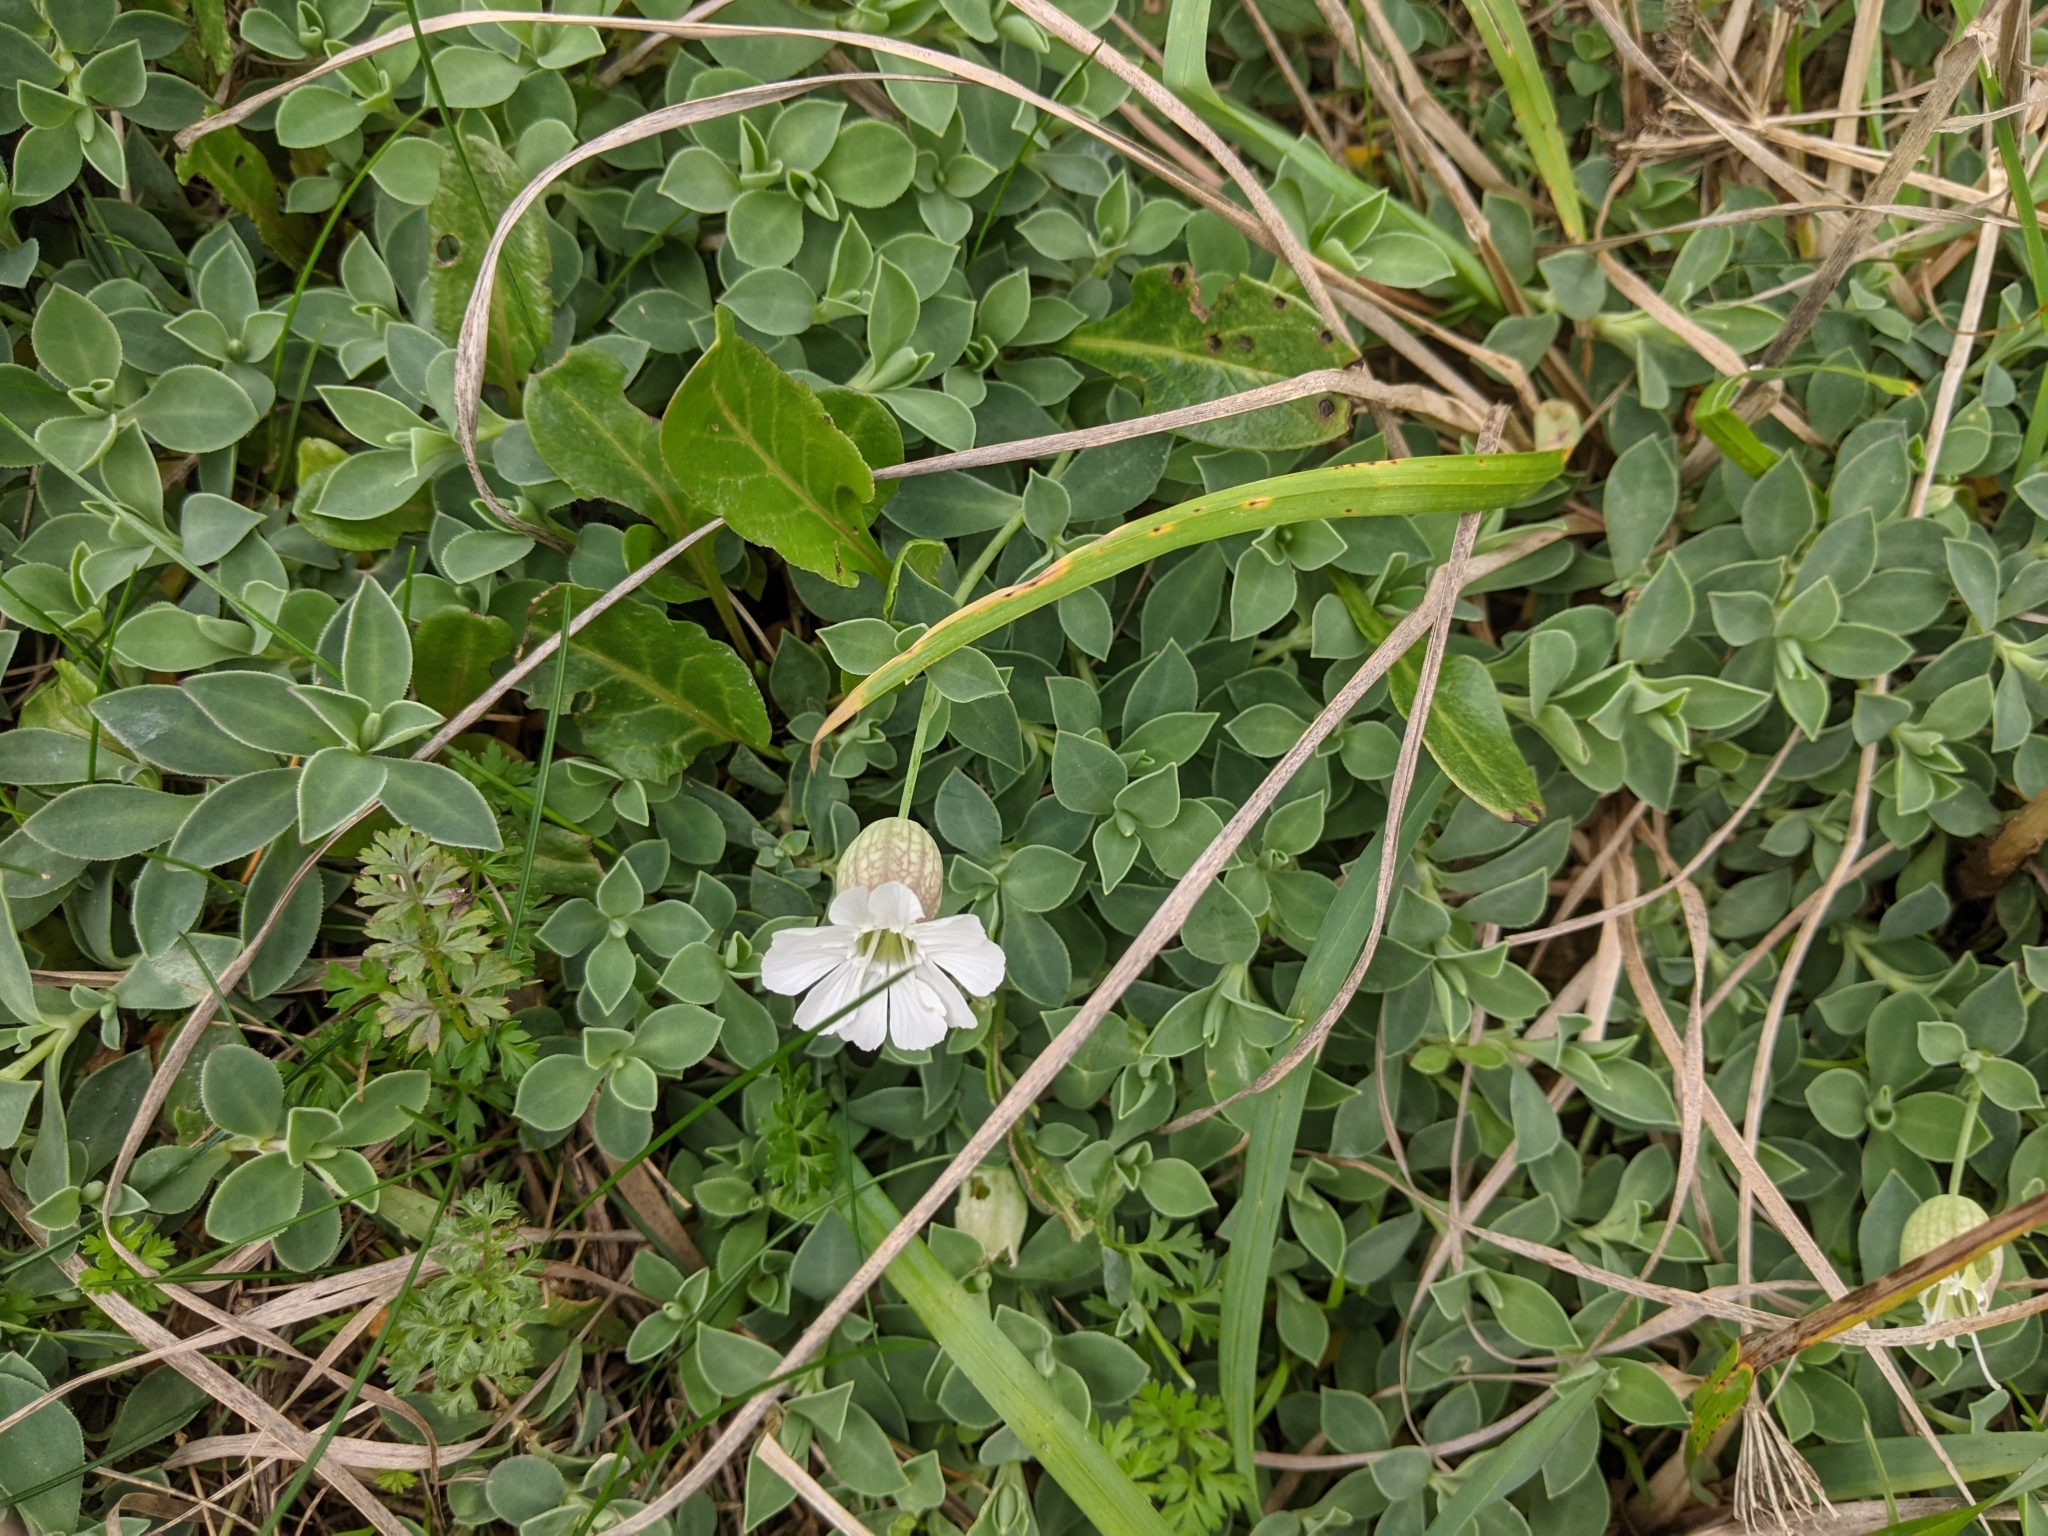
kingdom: Plantae
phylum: Tracheophyta
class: Magnoliopsida
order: Caryophyllales
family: Caryophyllaceae
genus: Silene
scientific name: Silene uniflora
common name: Sea campion
